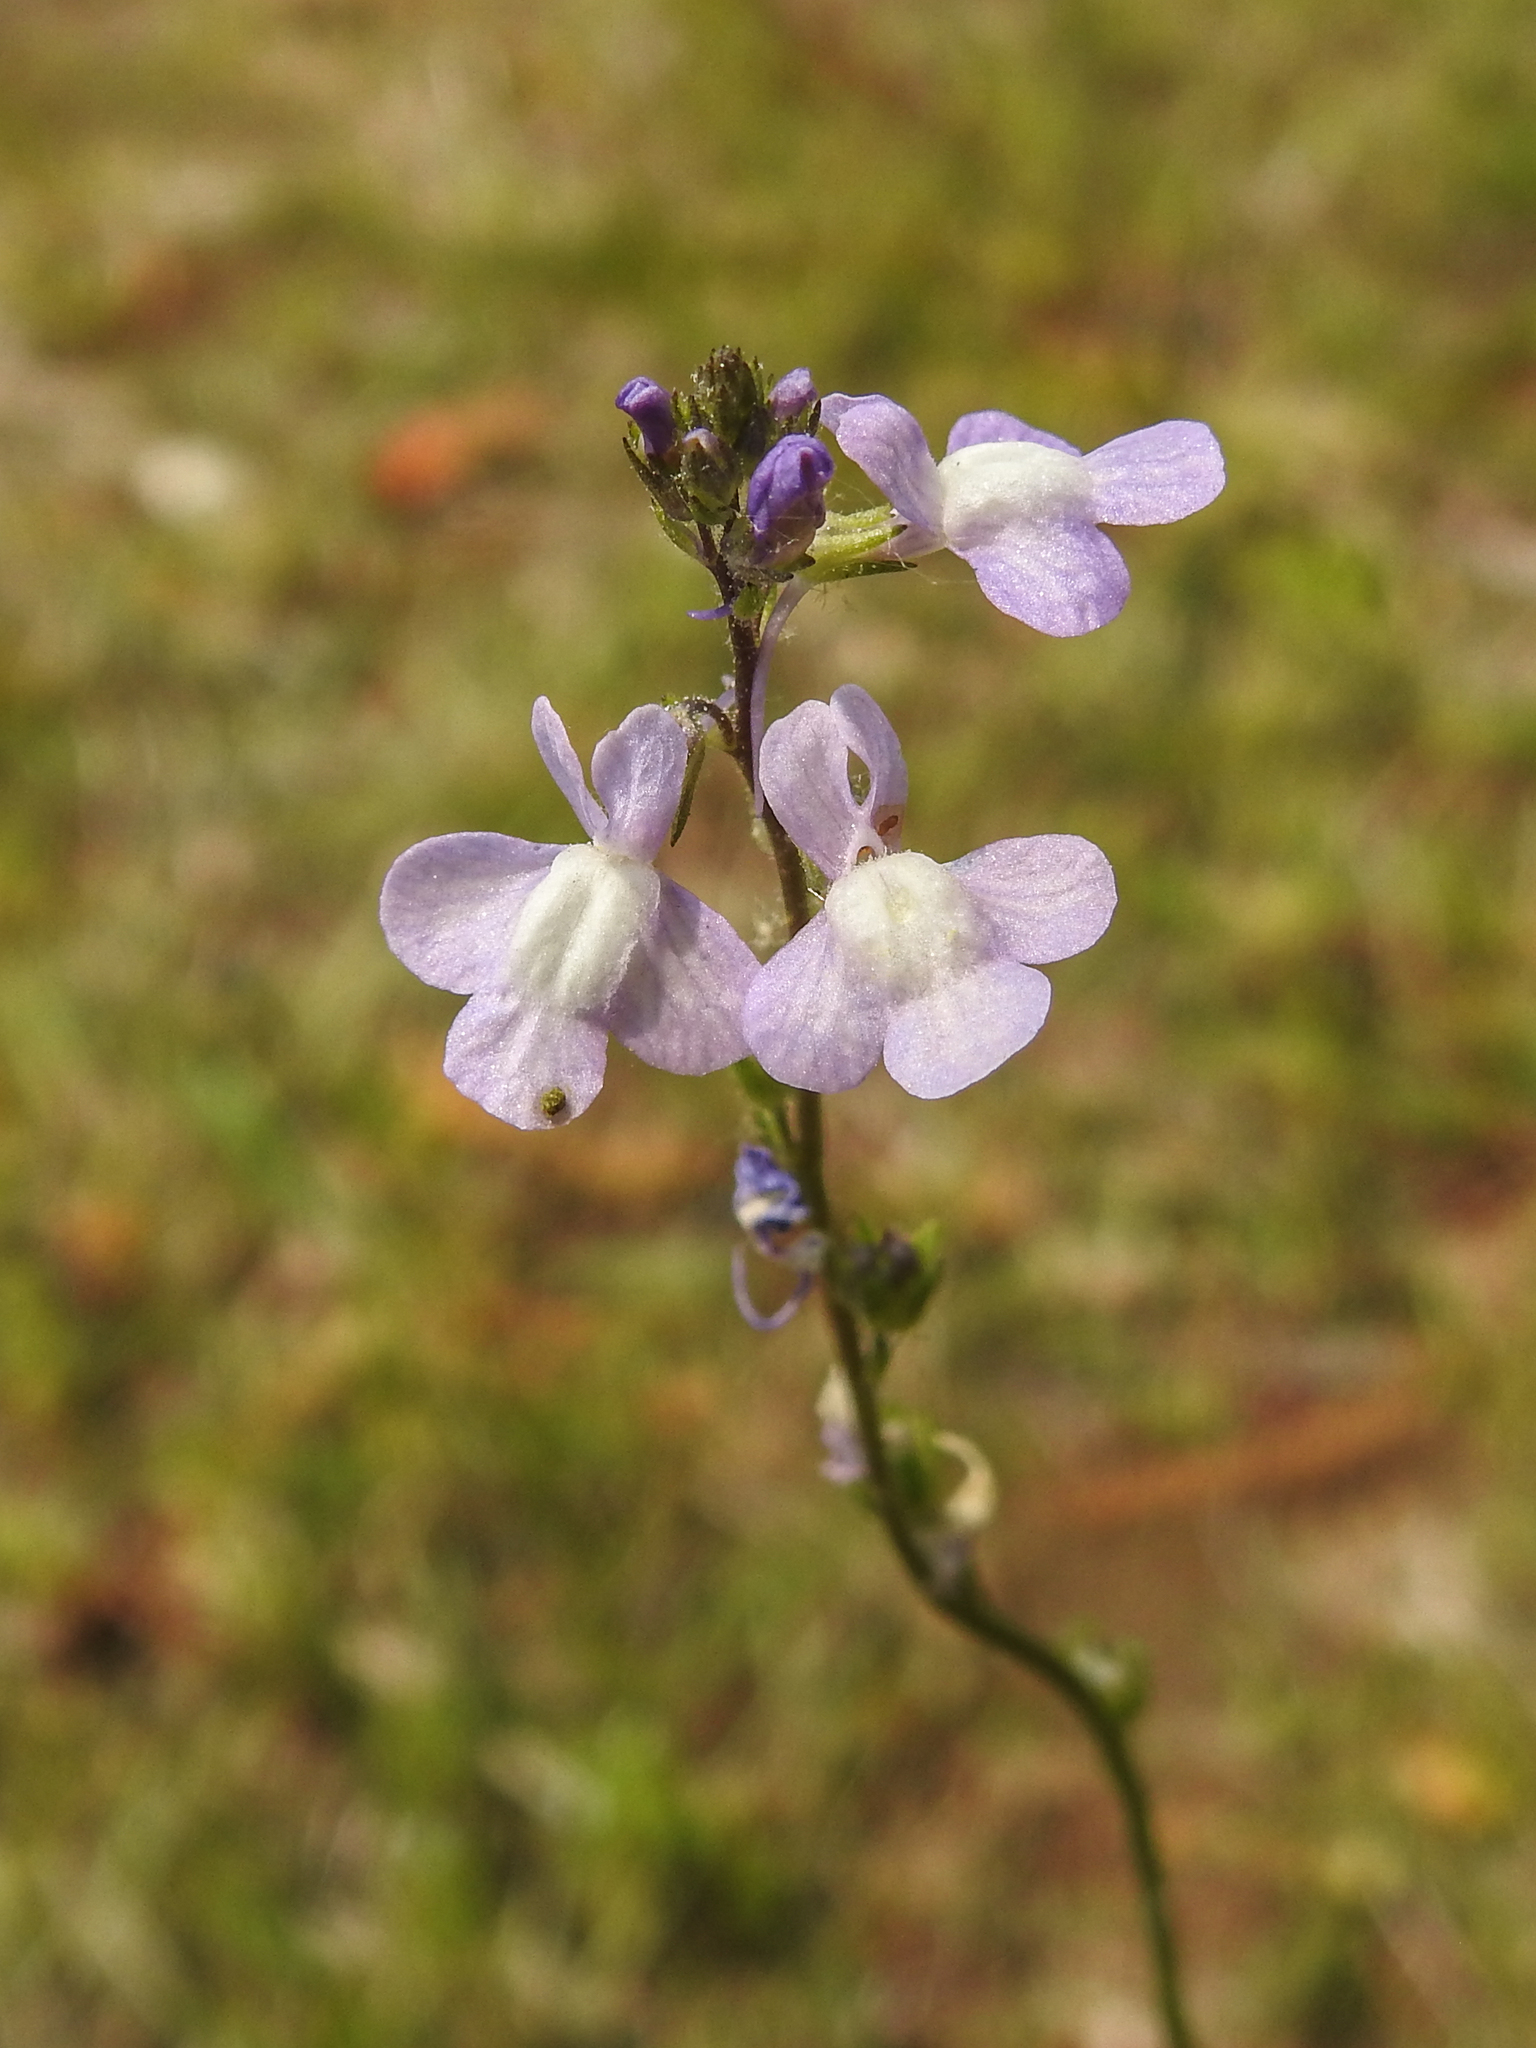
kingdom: Plantae
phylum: Tracheophyta
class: Magnoliopsida
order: Lamiales
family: Plantaginaceae
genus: Nuttallanthus
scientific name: Nuttallanthus canadensis
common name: Blue toadflax
